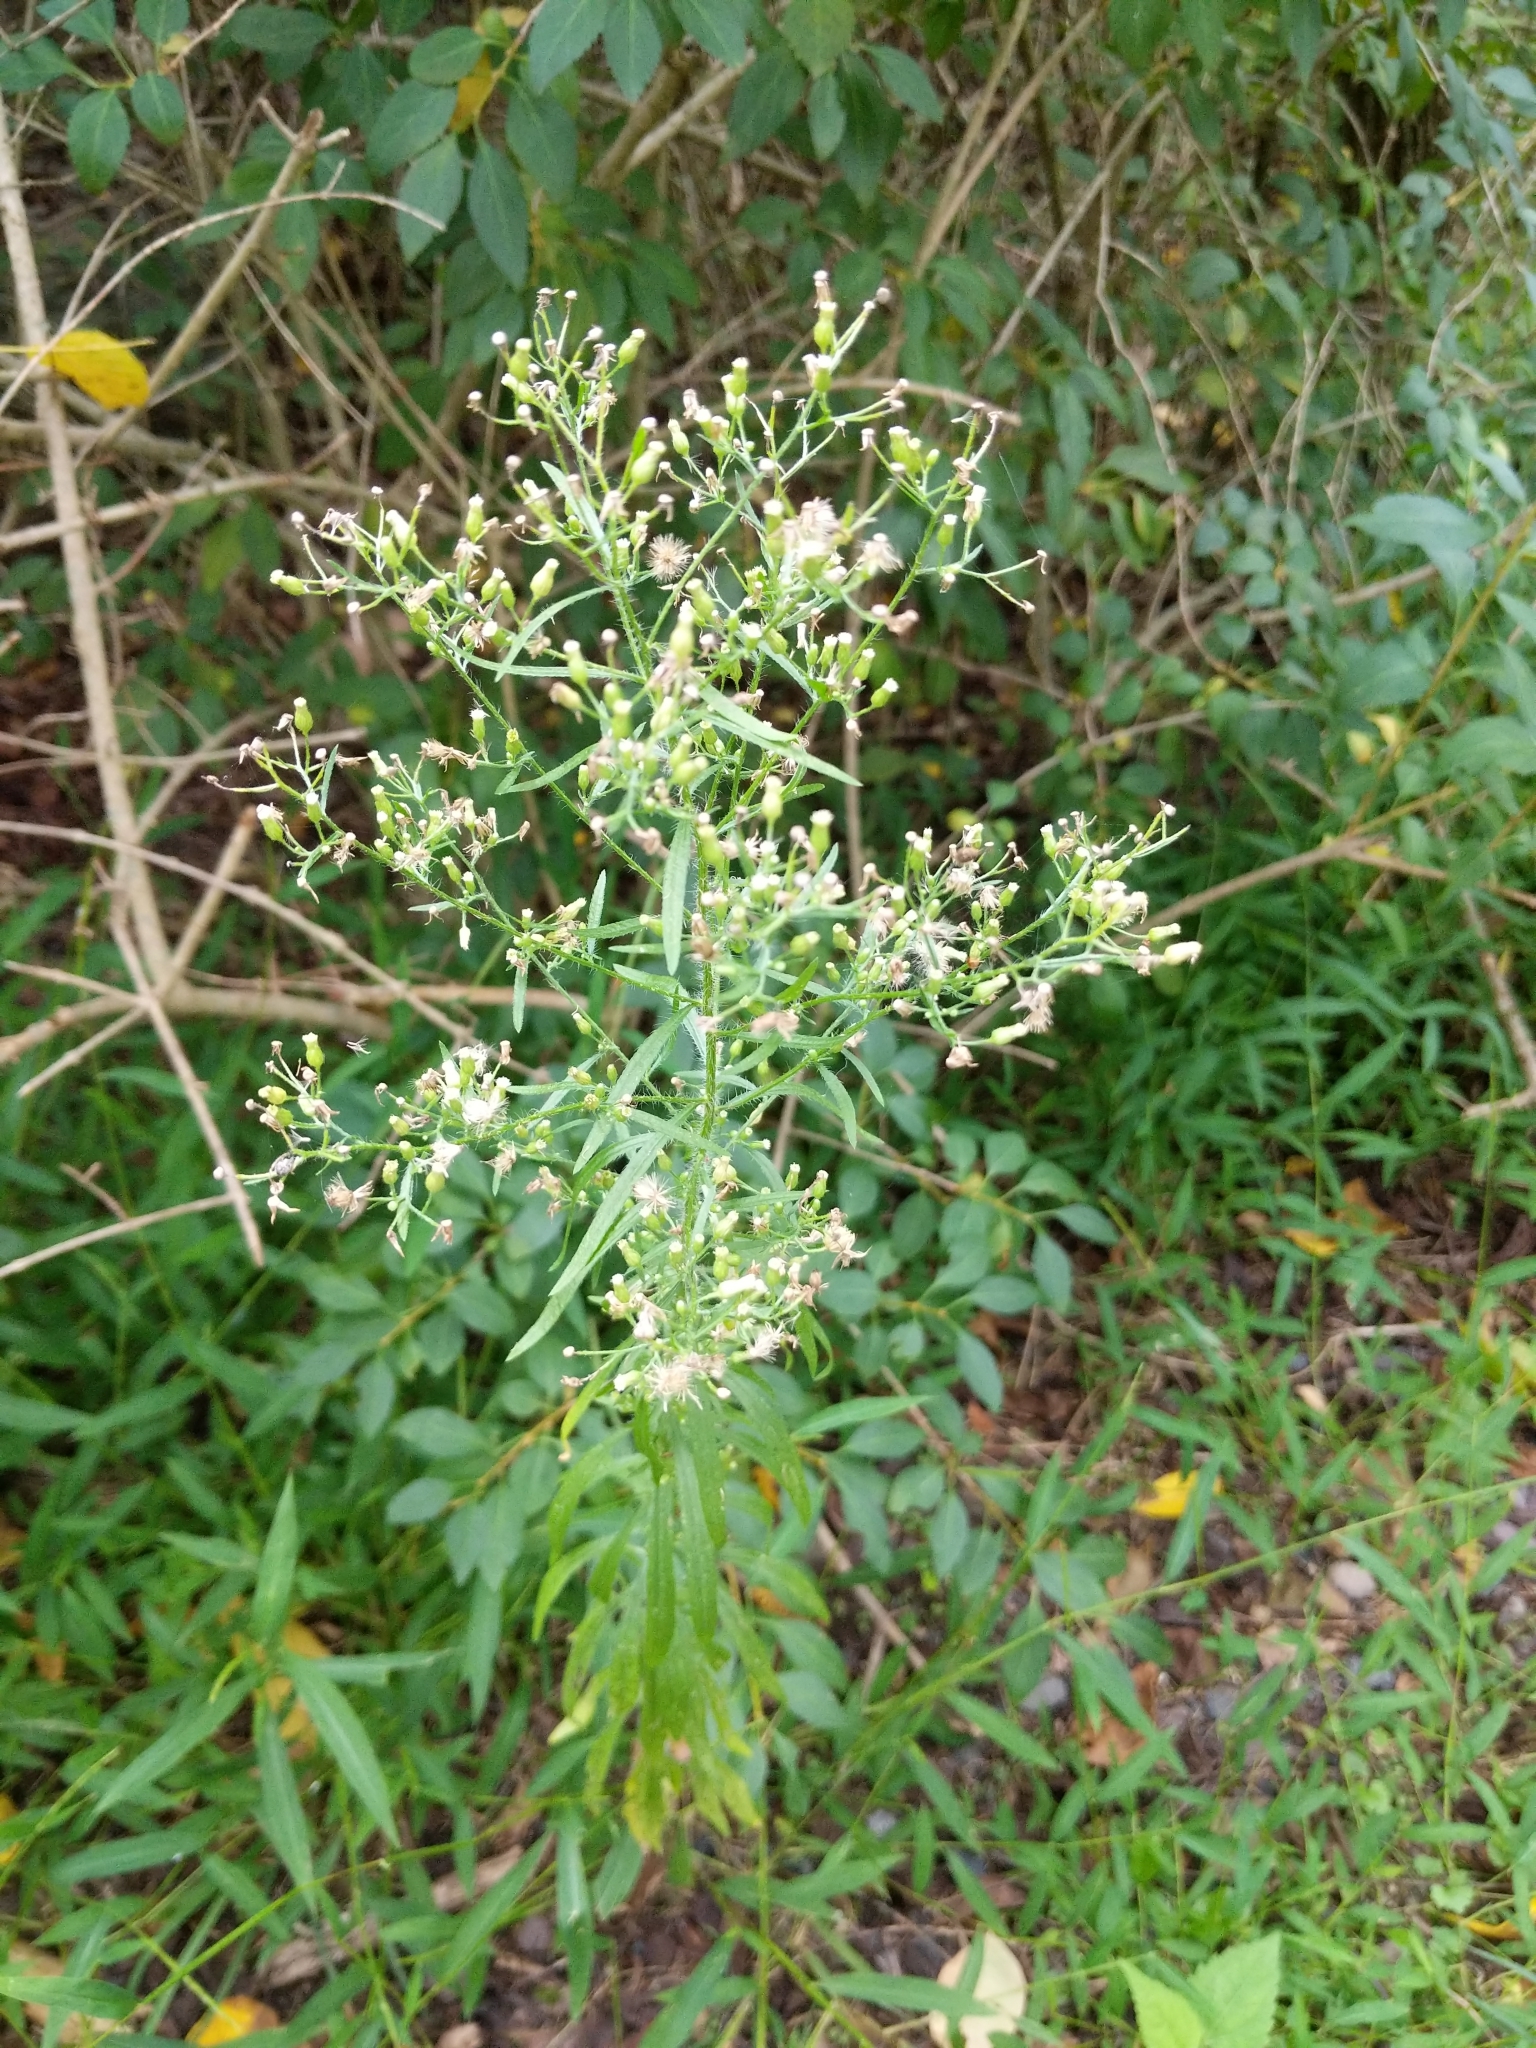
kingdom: Plantae
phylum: Tracheophyta
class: Magnoliopsida
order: Asterales
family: Asteraceae
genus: Erigeron
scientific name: Erigeron canadensis
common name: Canadian fleabane
